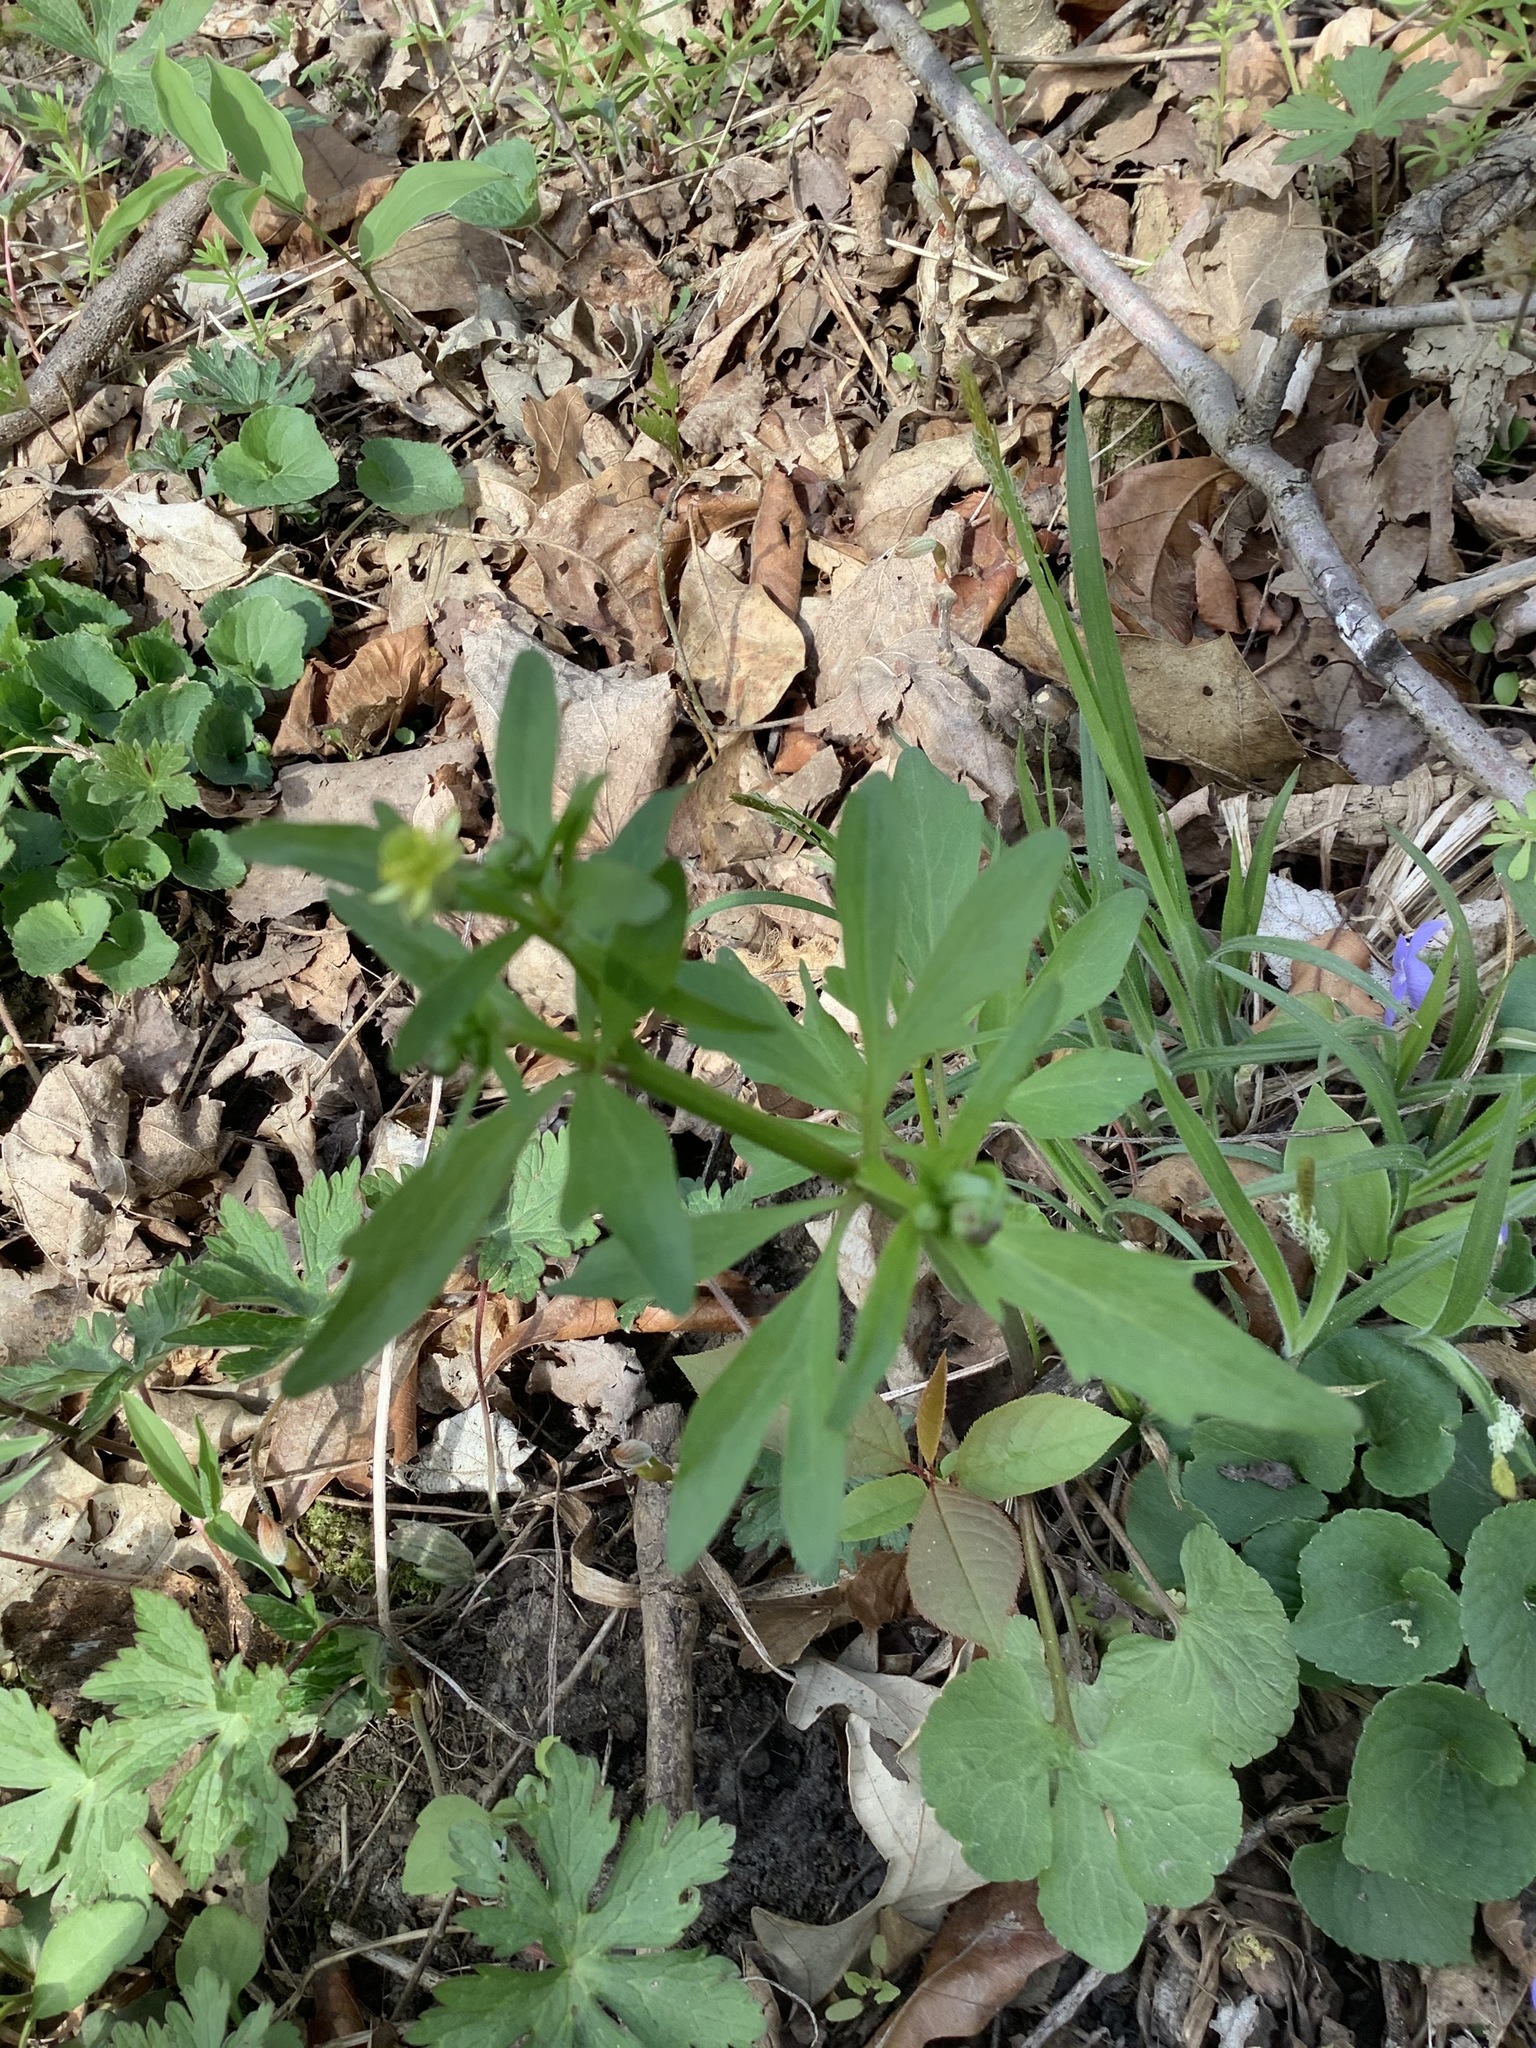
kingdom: Plantae
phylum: Tracheophyta
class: Magnoliopsida
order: Ranunculales
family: Ranunculaceae
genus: Ranunculus
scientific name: Ranunculus abortivus
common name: Early wood buttercup
